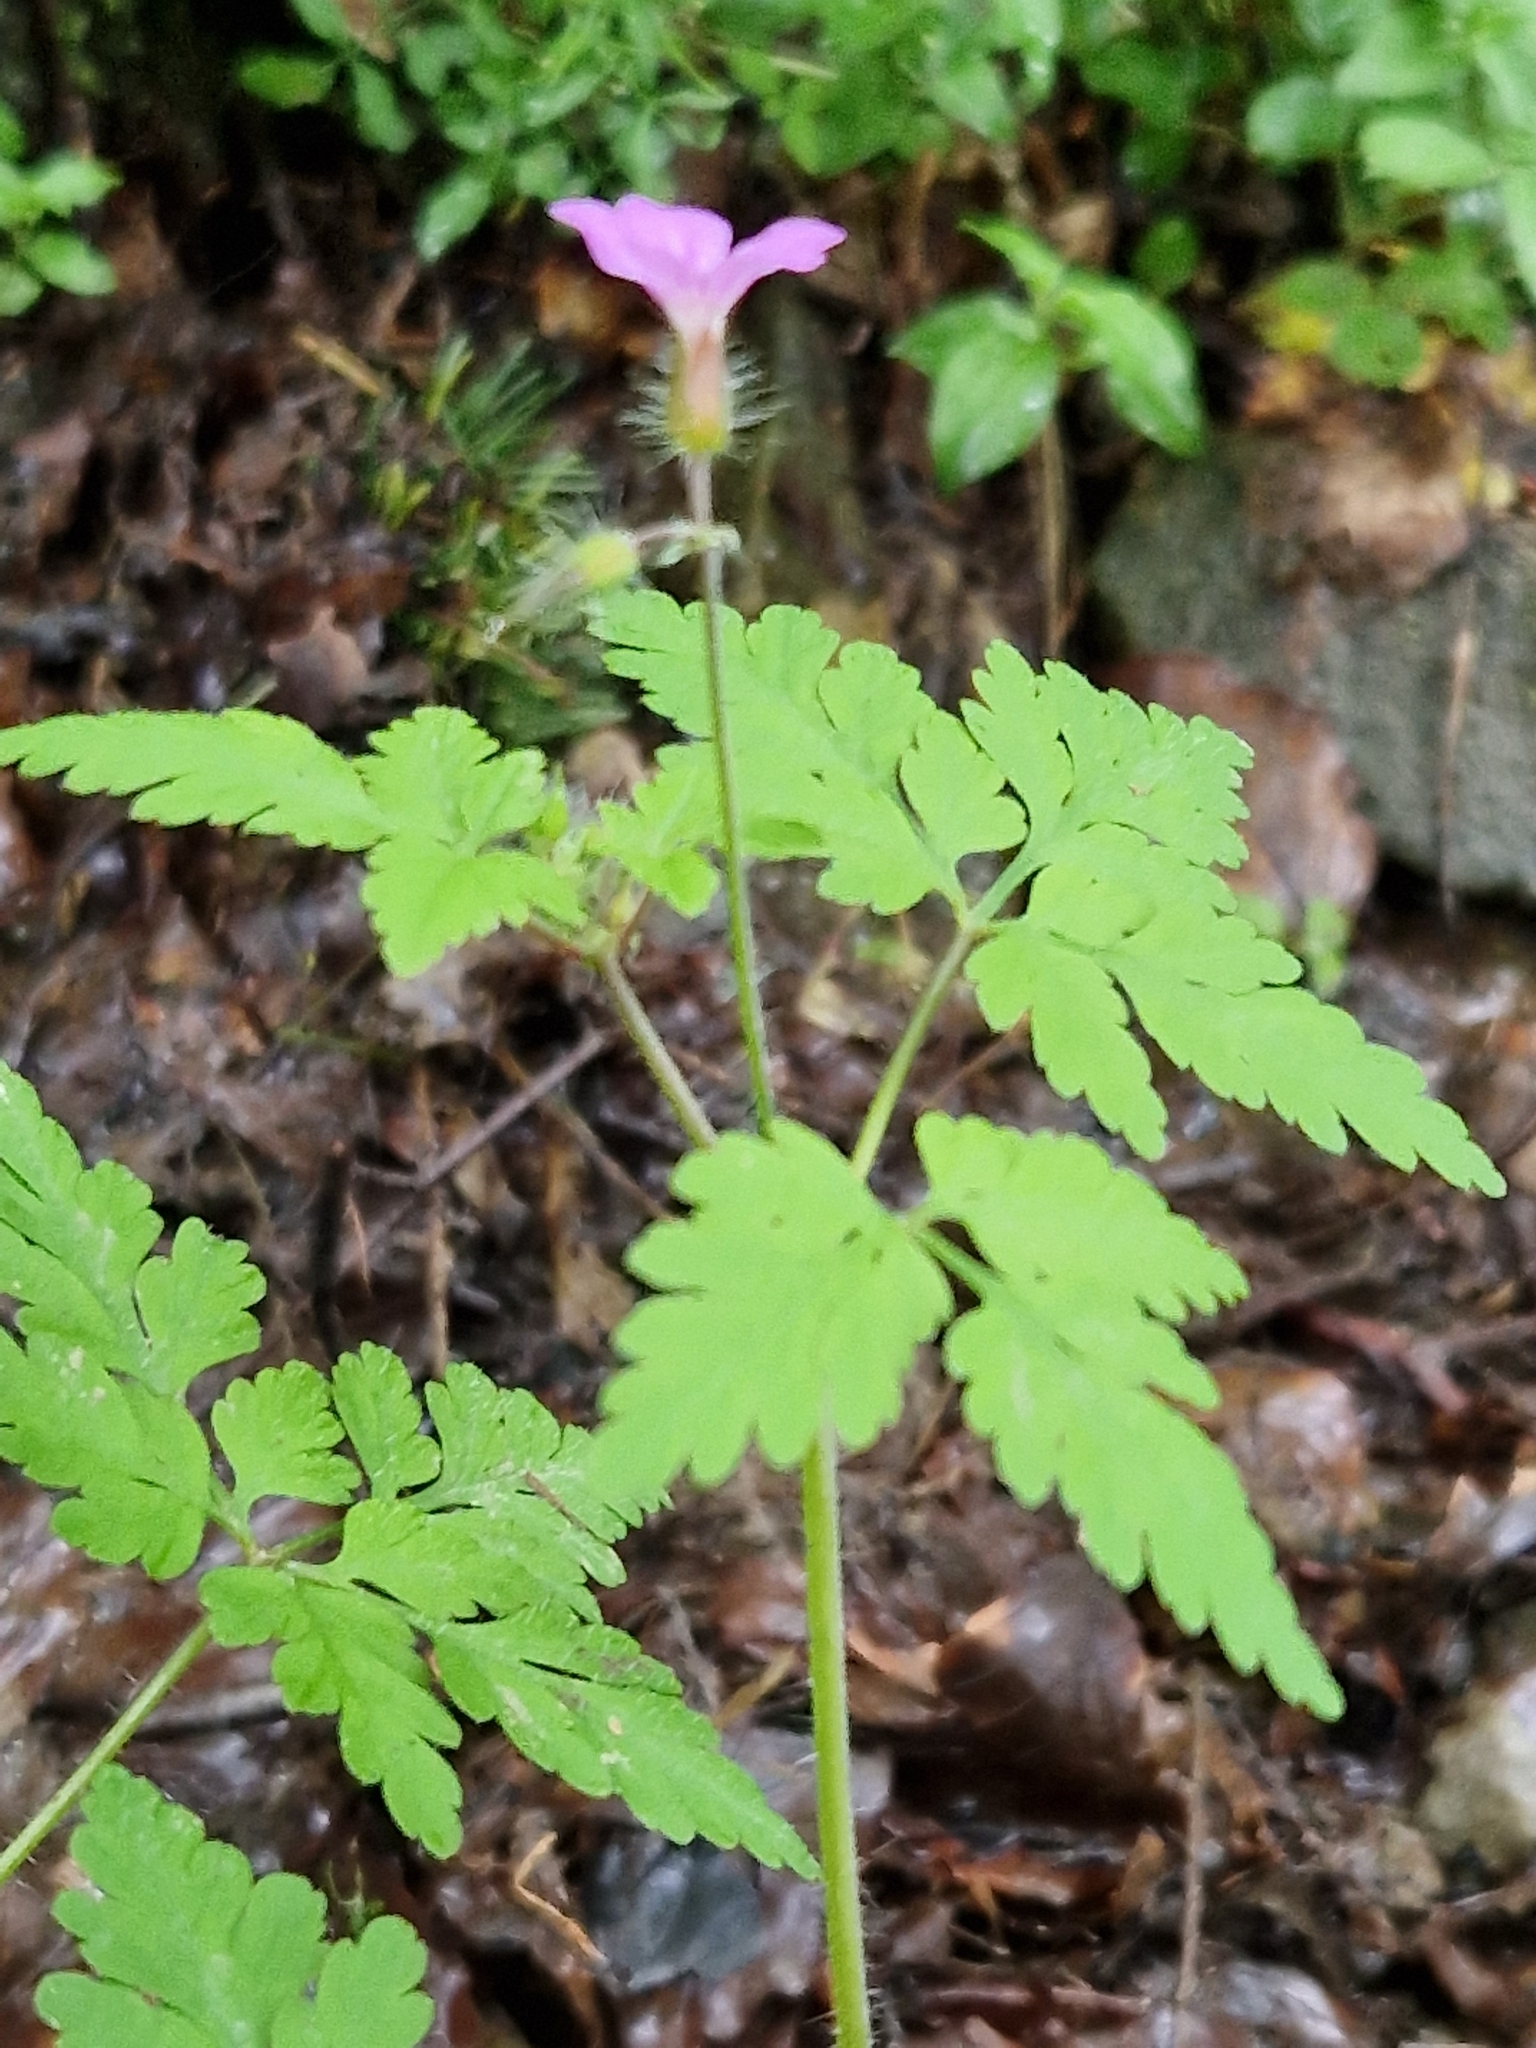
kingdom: Plantae
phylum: Tracheophyta
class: Magnoliopsida
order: Geraniales
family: Geraniaceae
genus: Geranium
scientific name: Geranium robertianum
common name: Herb-robert
